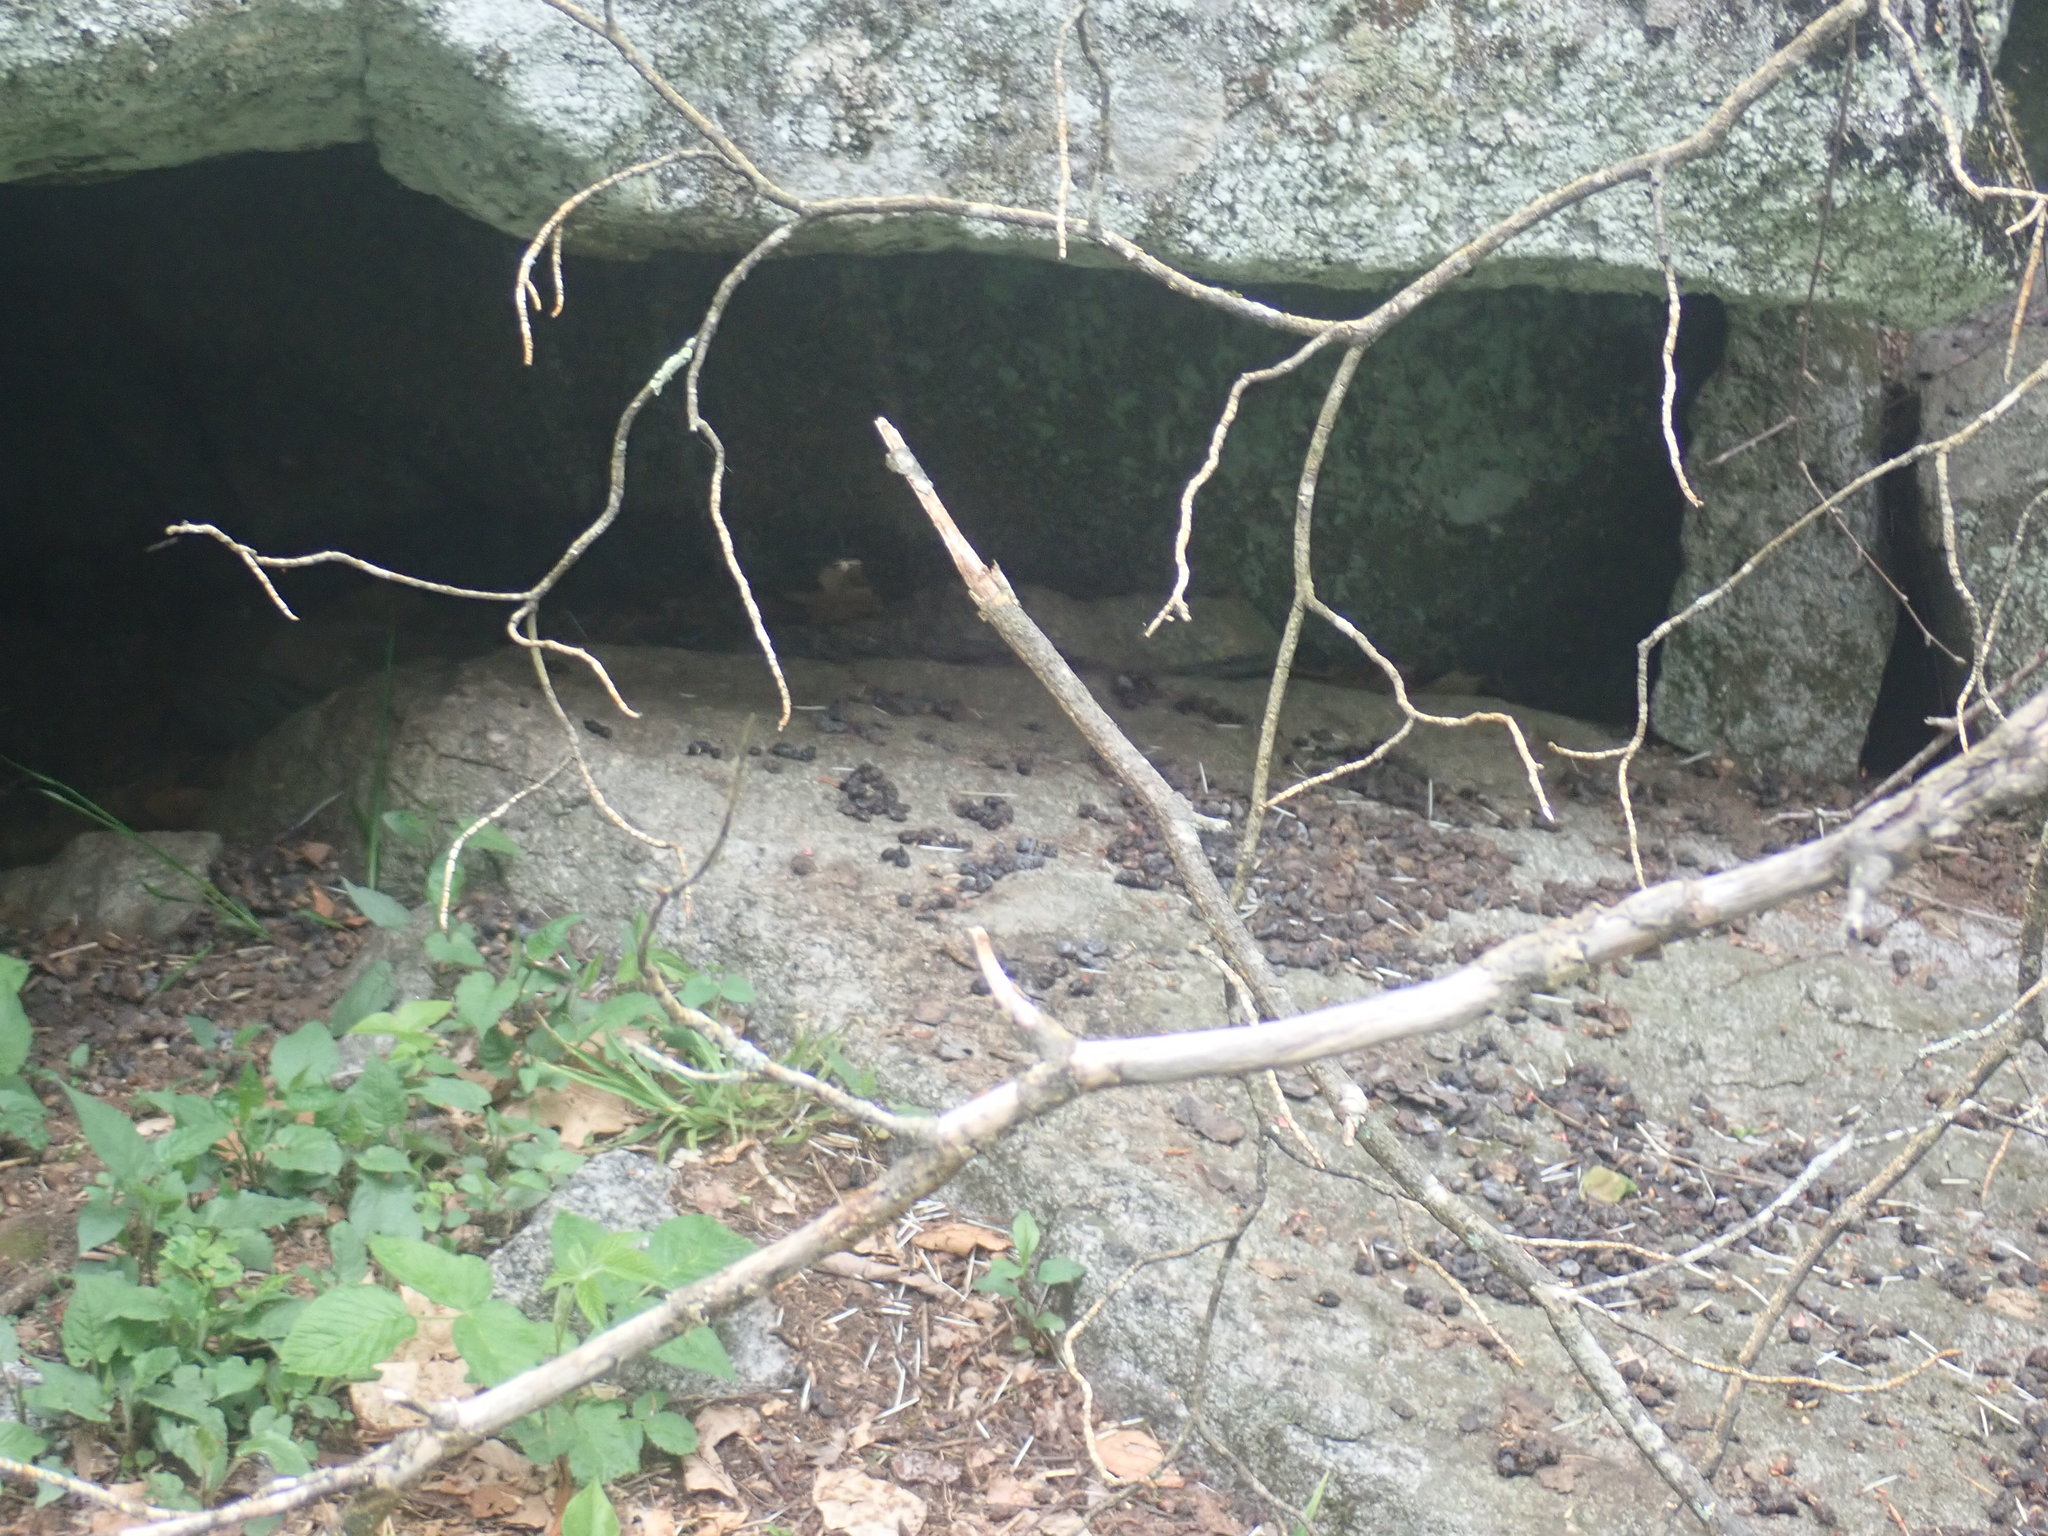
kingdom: Animalia
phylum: Chordata
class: Mammalia
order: Rodentia
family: Erethizontidae
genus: Erethizon
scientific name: Erethizon dorsatus
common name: North american porcupine
